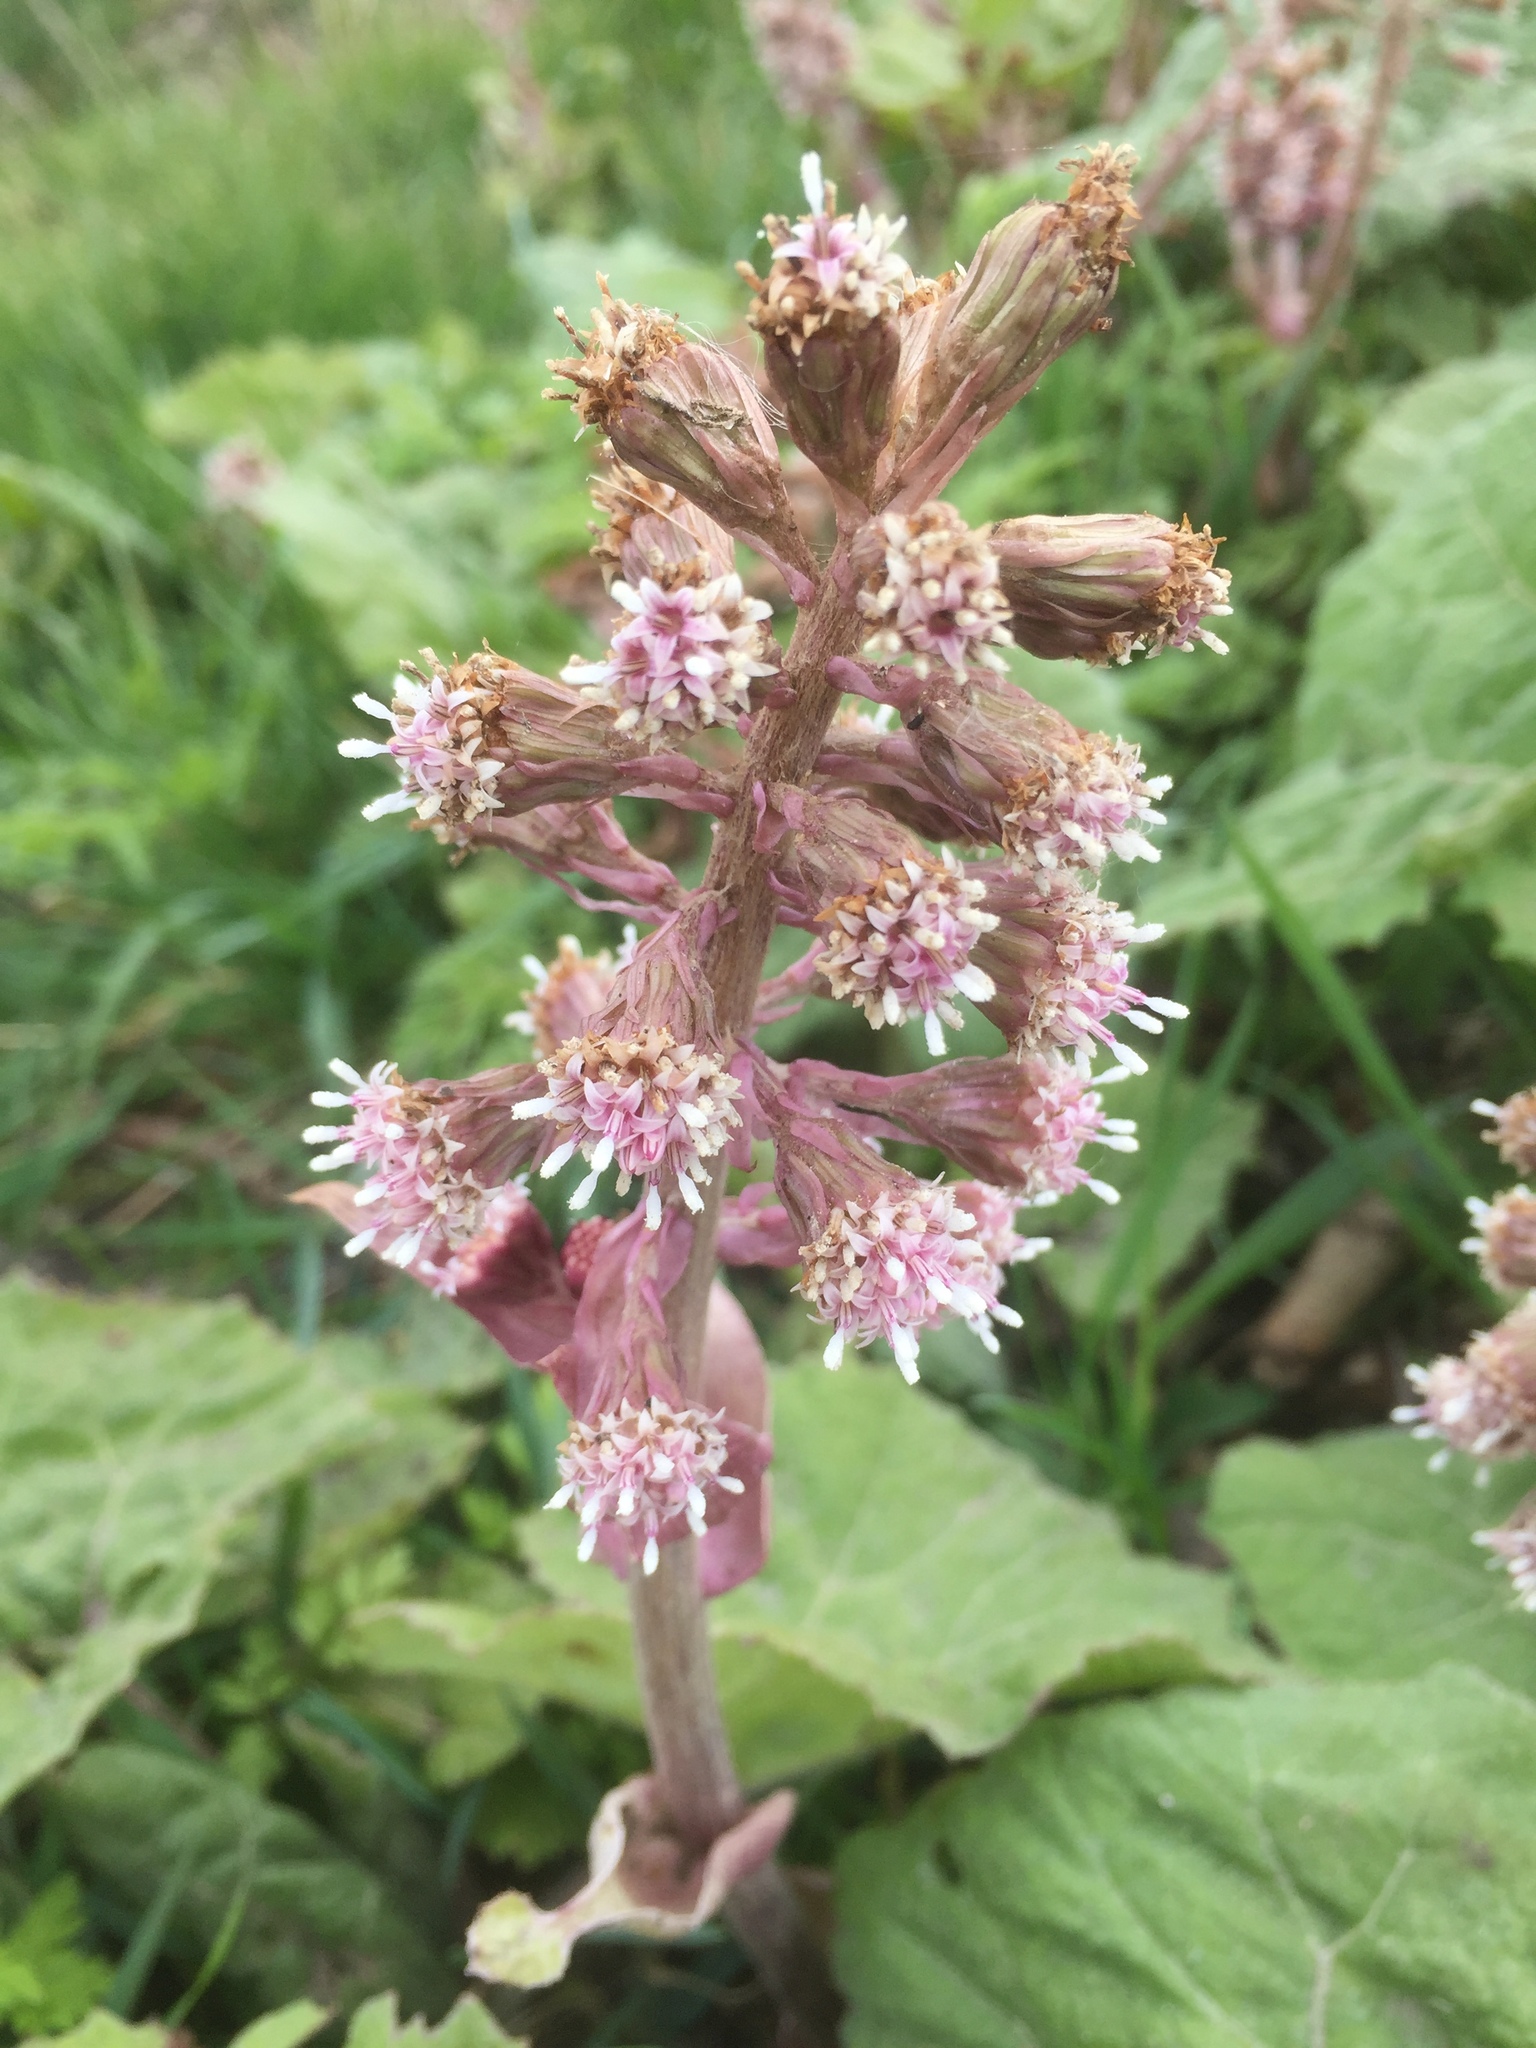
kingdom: Plantae
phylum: Tracheophyta
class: Magnoliopsida
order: Asterales
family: Asteraceae
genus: Petasites
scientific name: Petasites hybridus
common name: Butterbur
